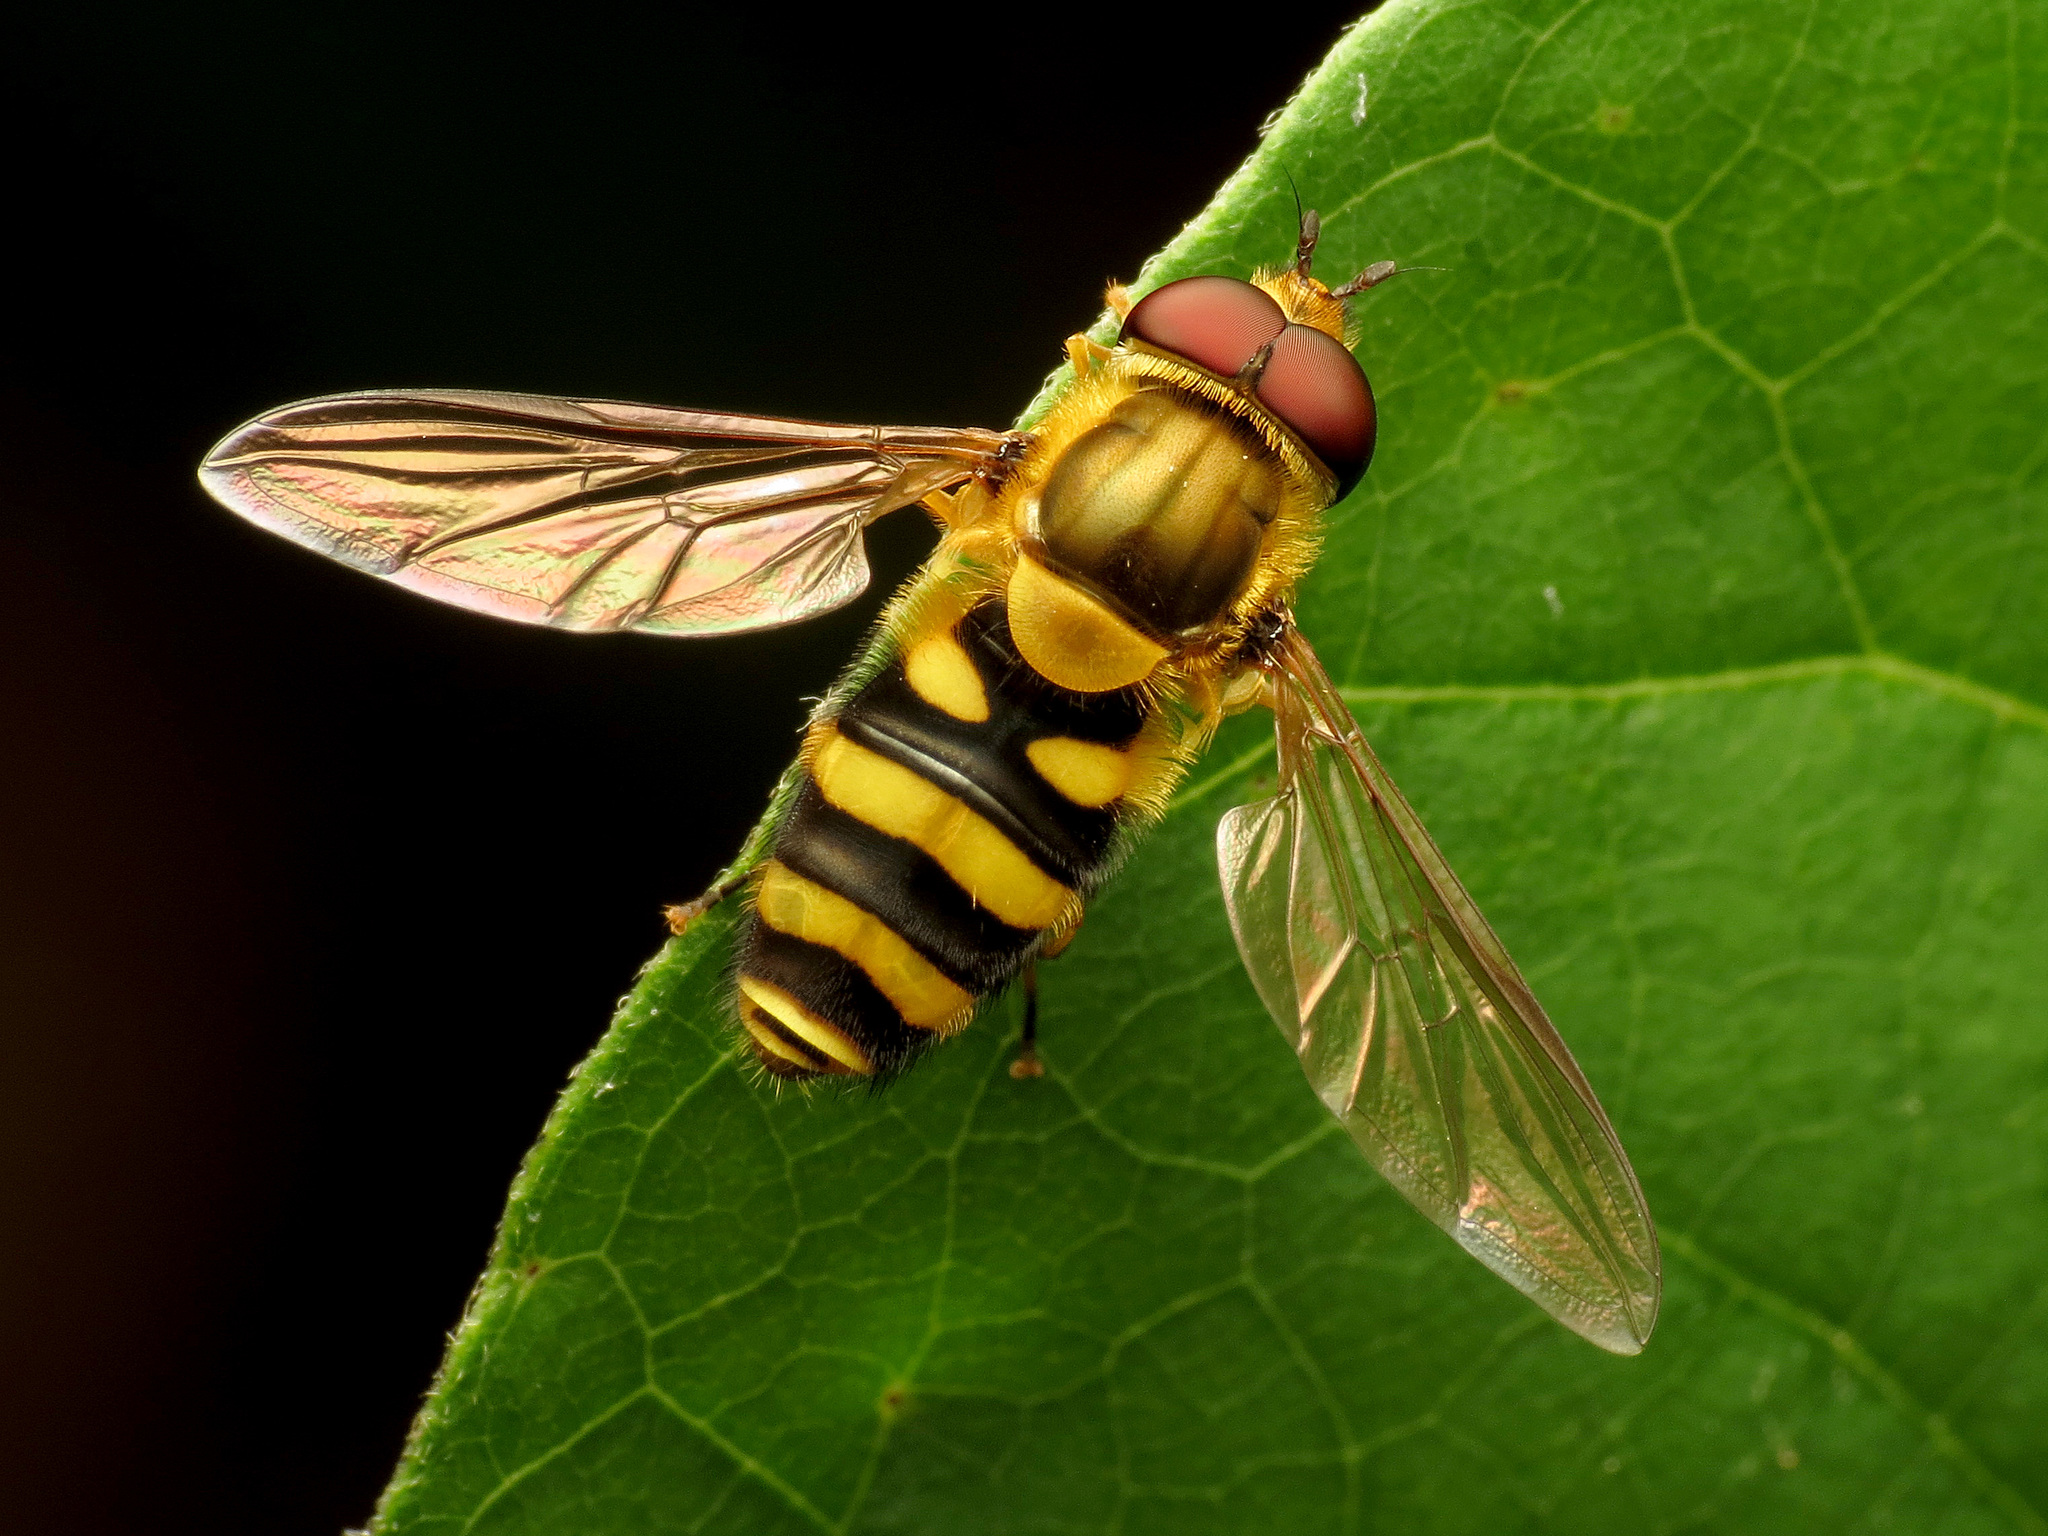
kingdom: Animalia
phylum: Arthropoda
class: Insecta
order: Diptera
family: Syrphidae
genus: Syrphus
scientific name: Syrphus
